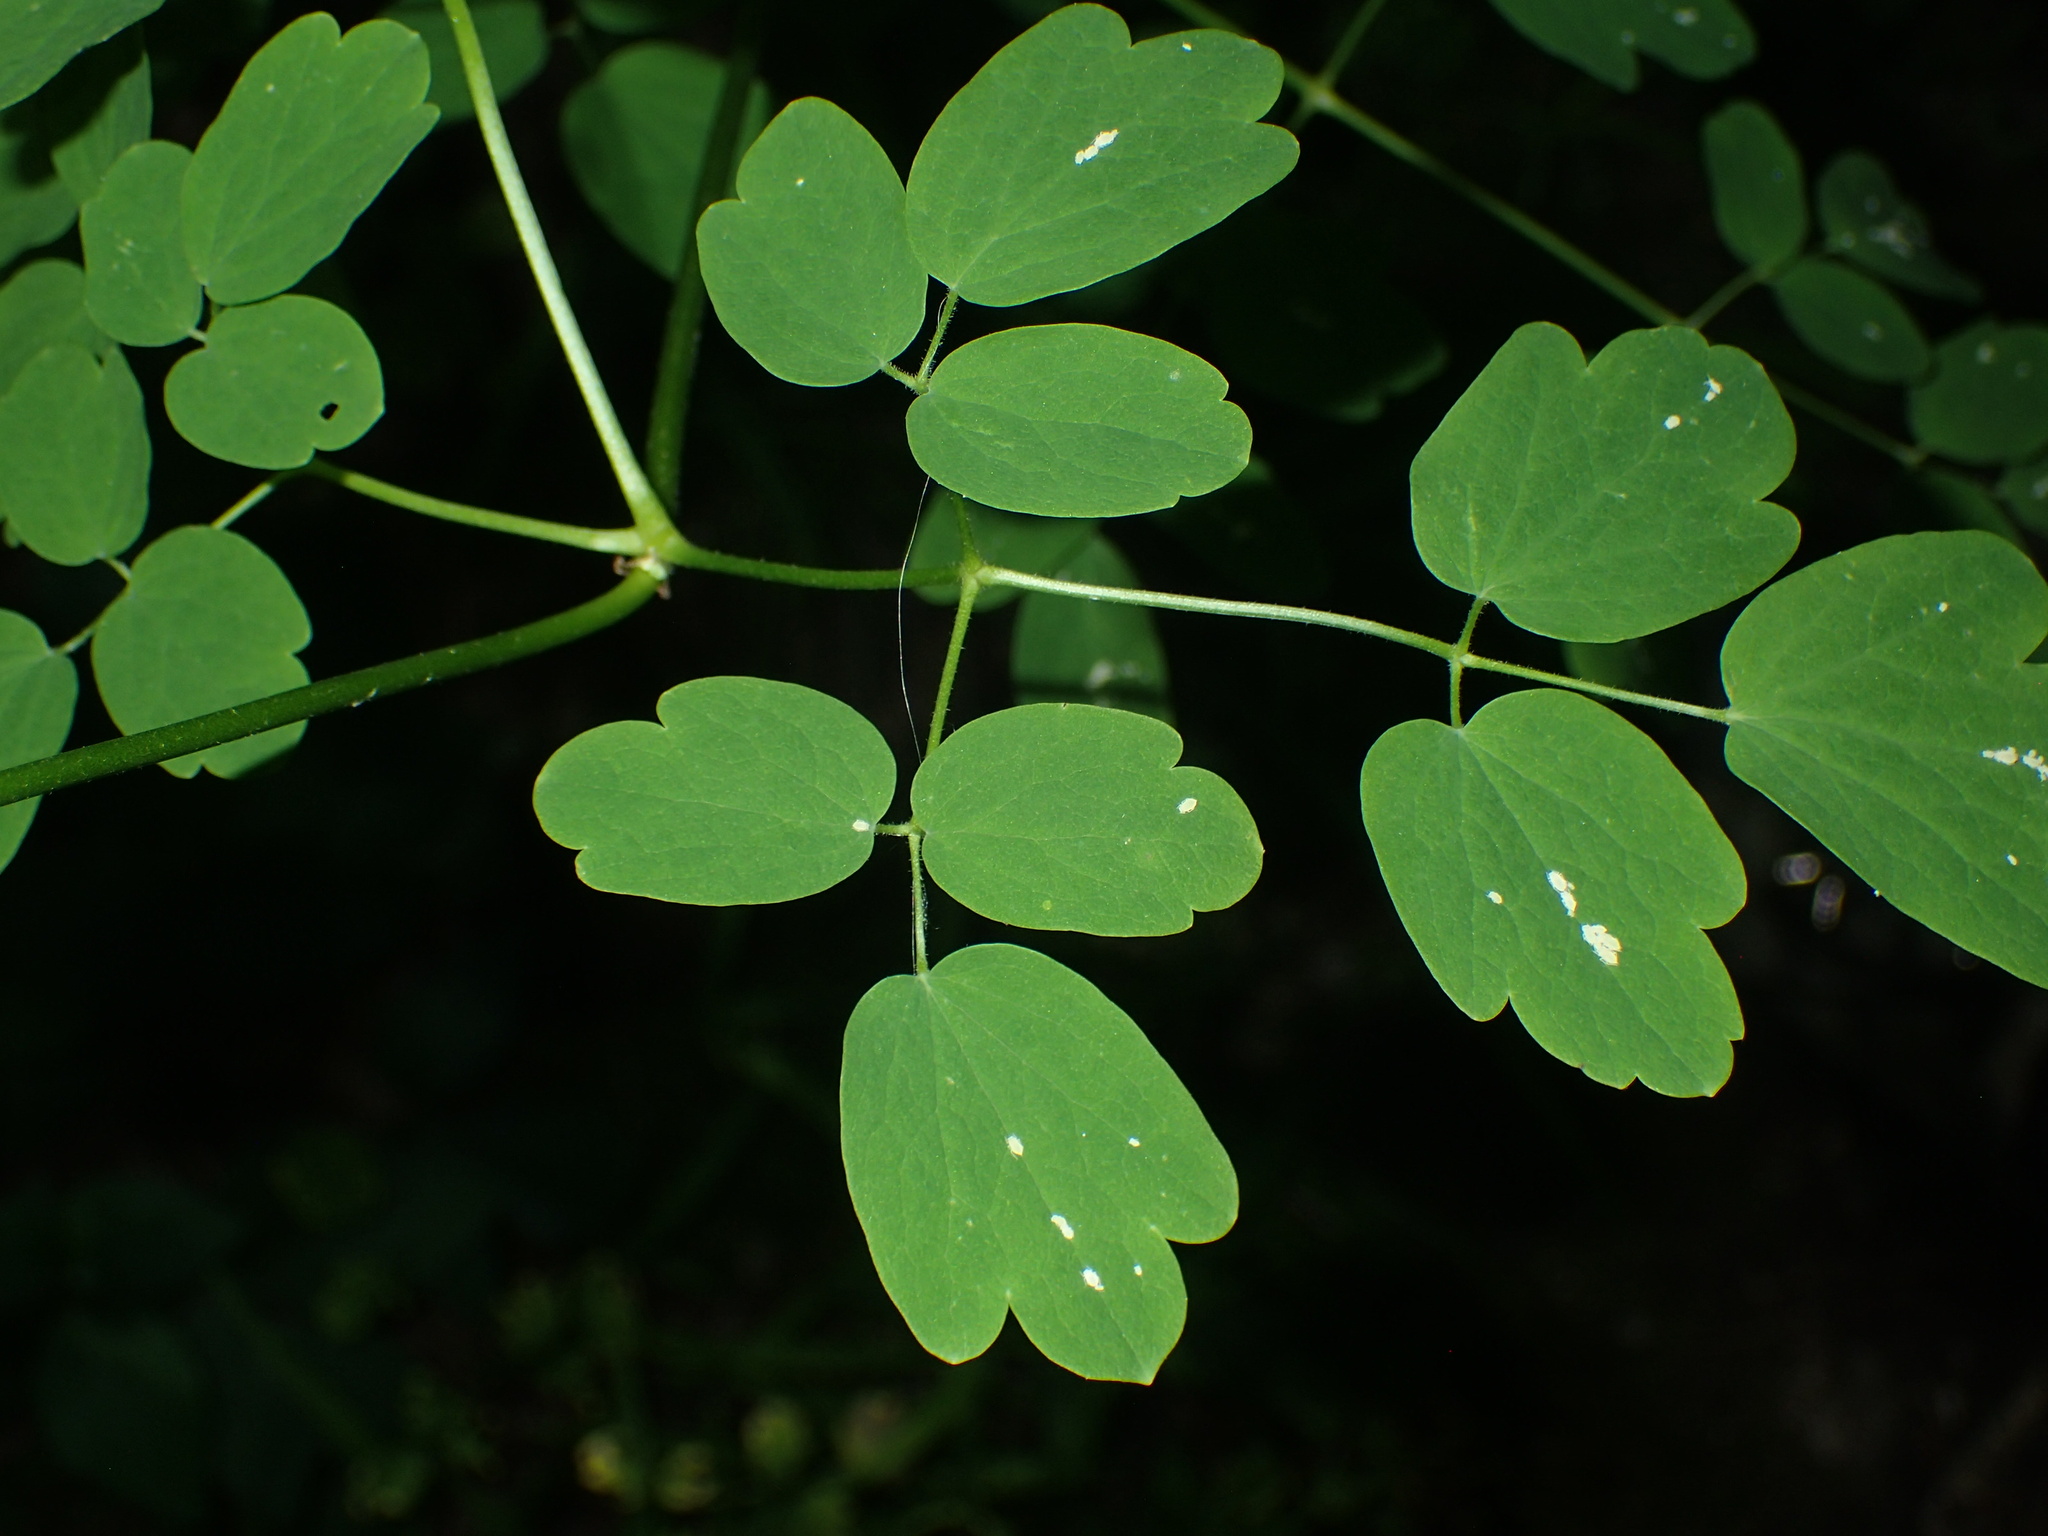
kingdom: Plantae
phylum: Tracheophyta
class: Magnoliopsida
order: Ranunculales
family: Ranunculaceae
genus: Thalictrum
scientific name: Thalictrum pubescens
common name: King-of-the-meadow
